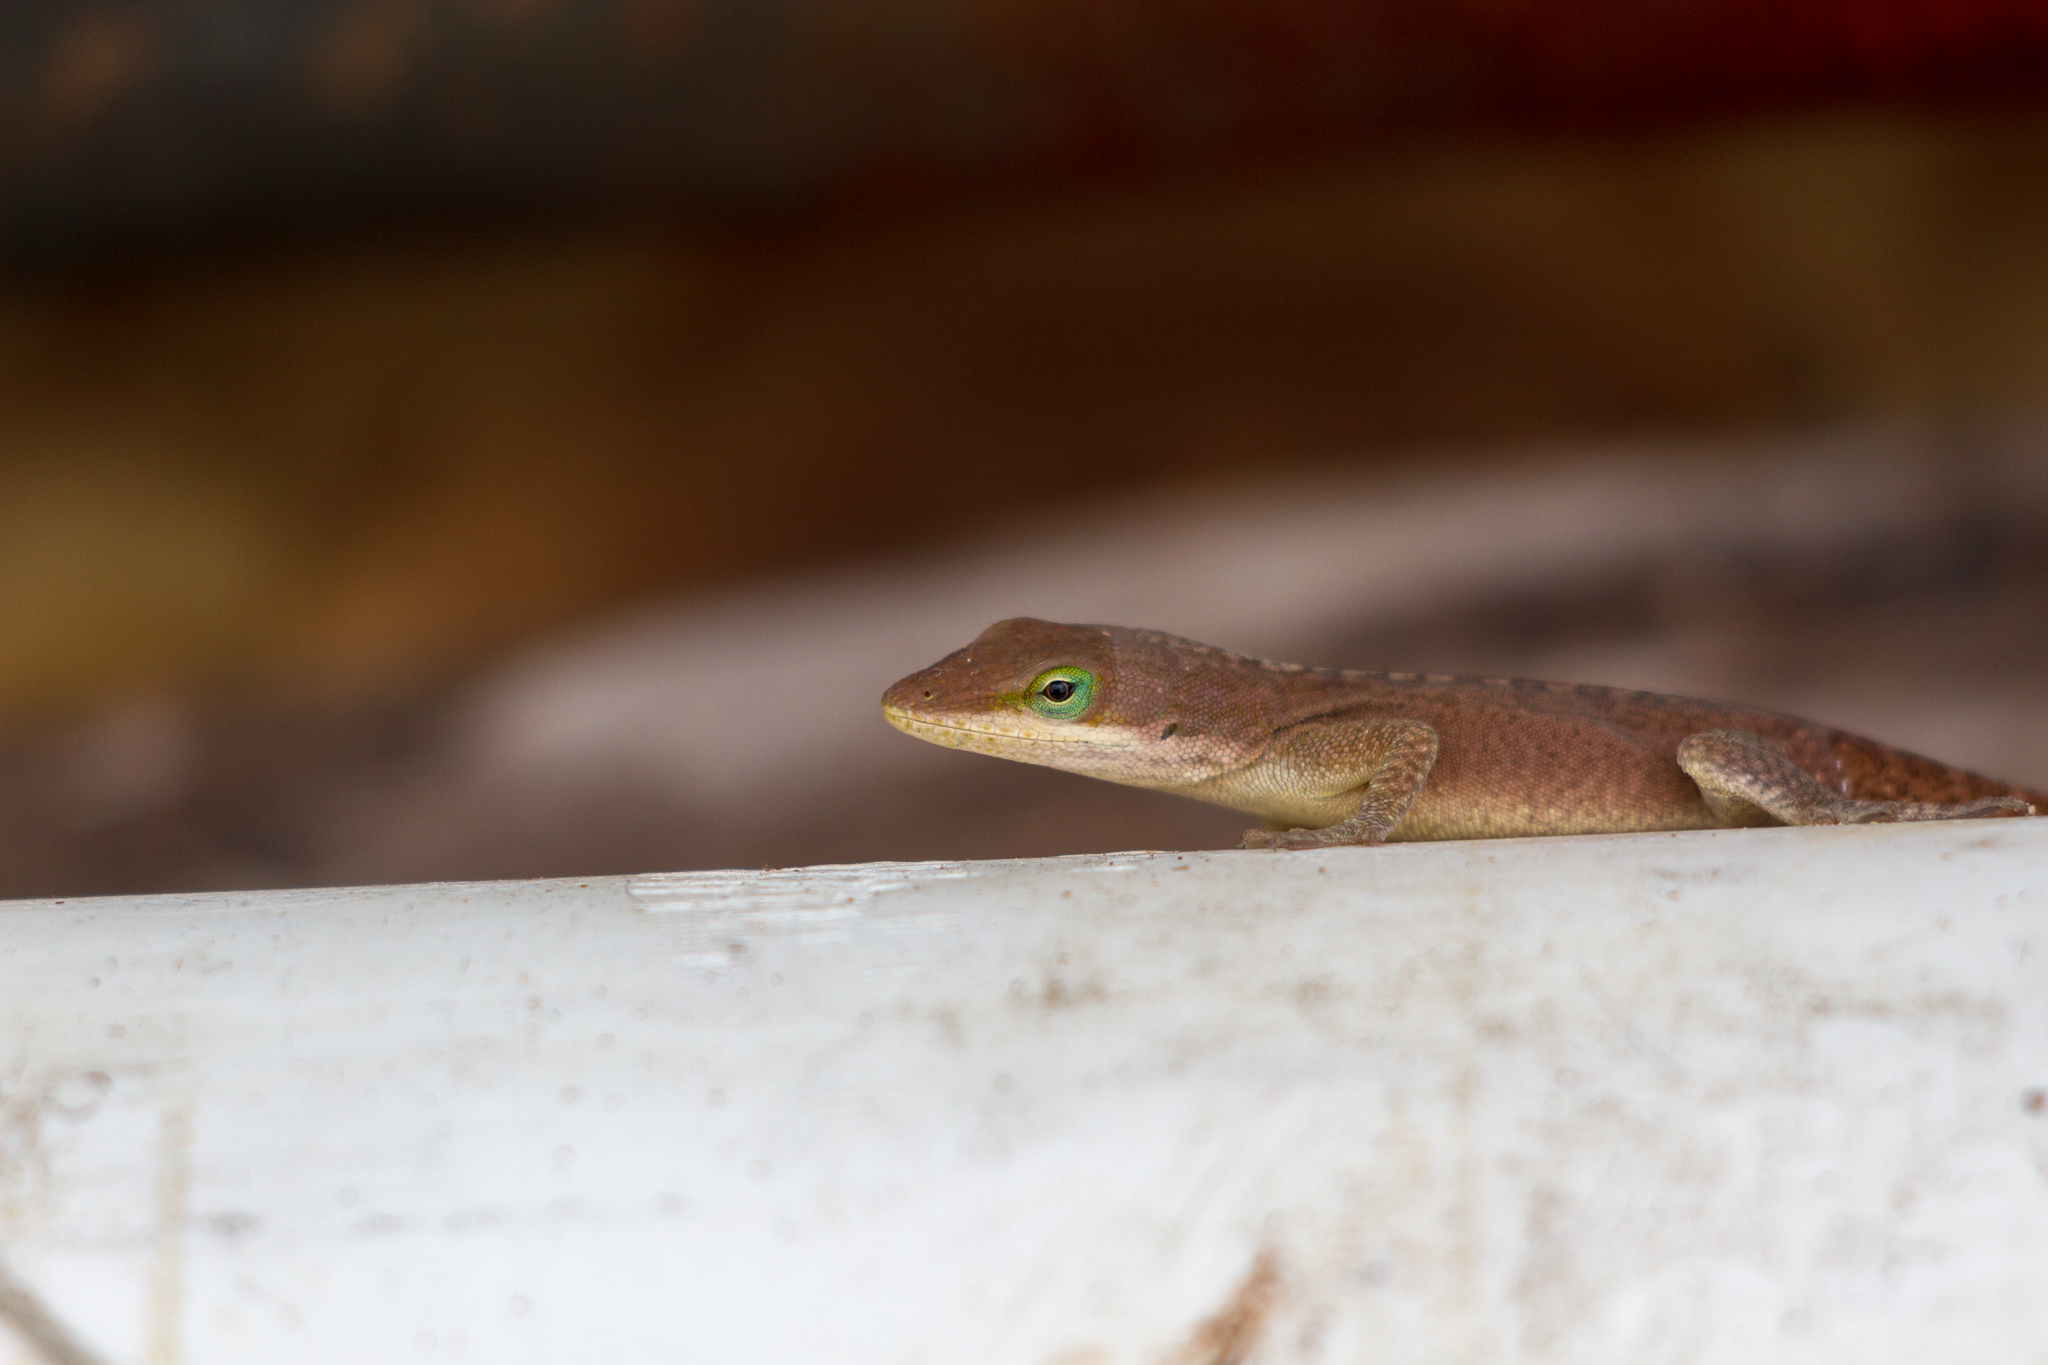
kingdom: Animalia
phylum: Chordata
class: Squamata
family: Dactyloidae
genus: Anolis
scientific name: Anolis carolinensis
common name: Green anole
